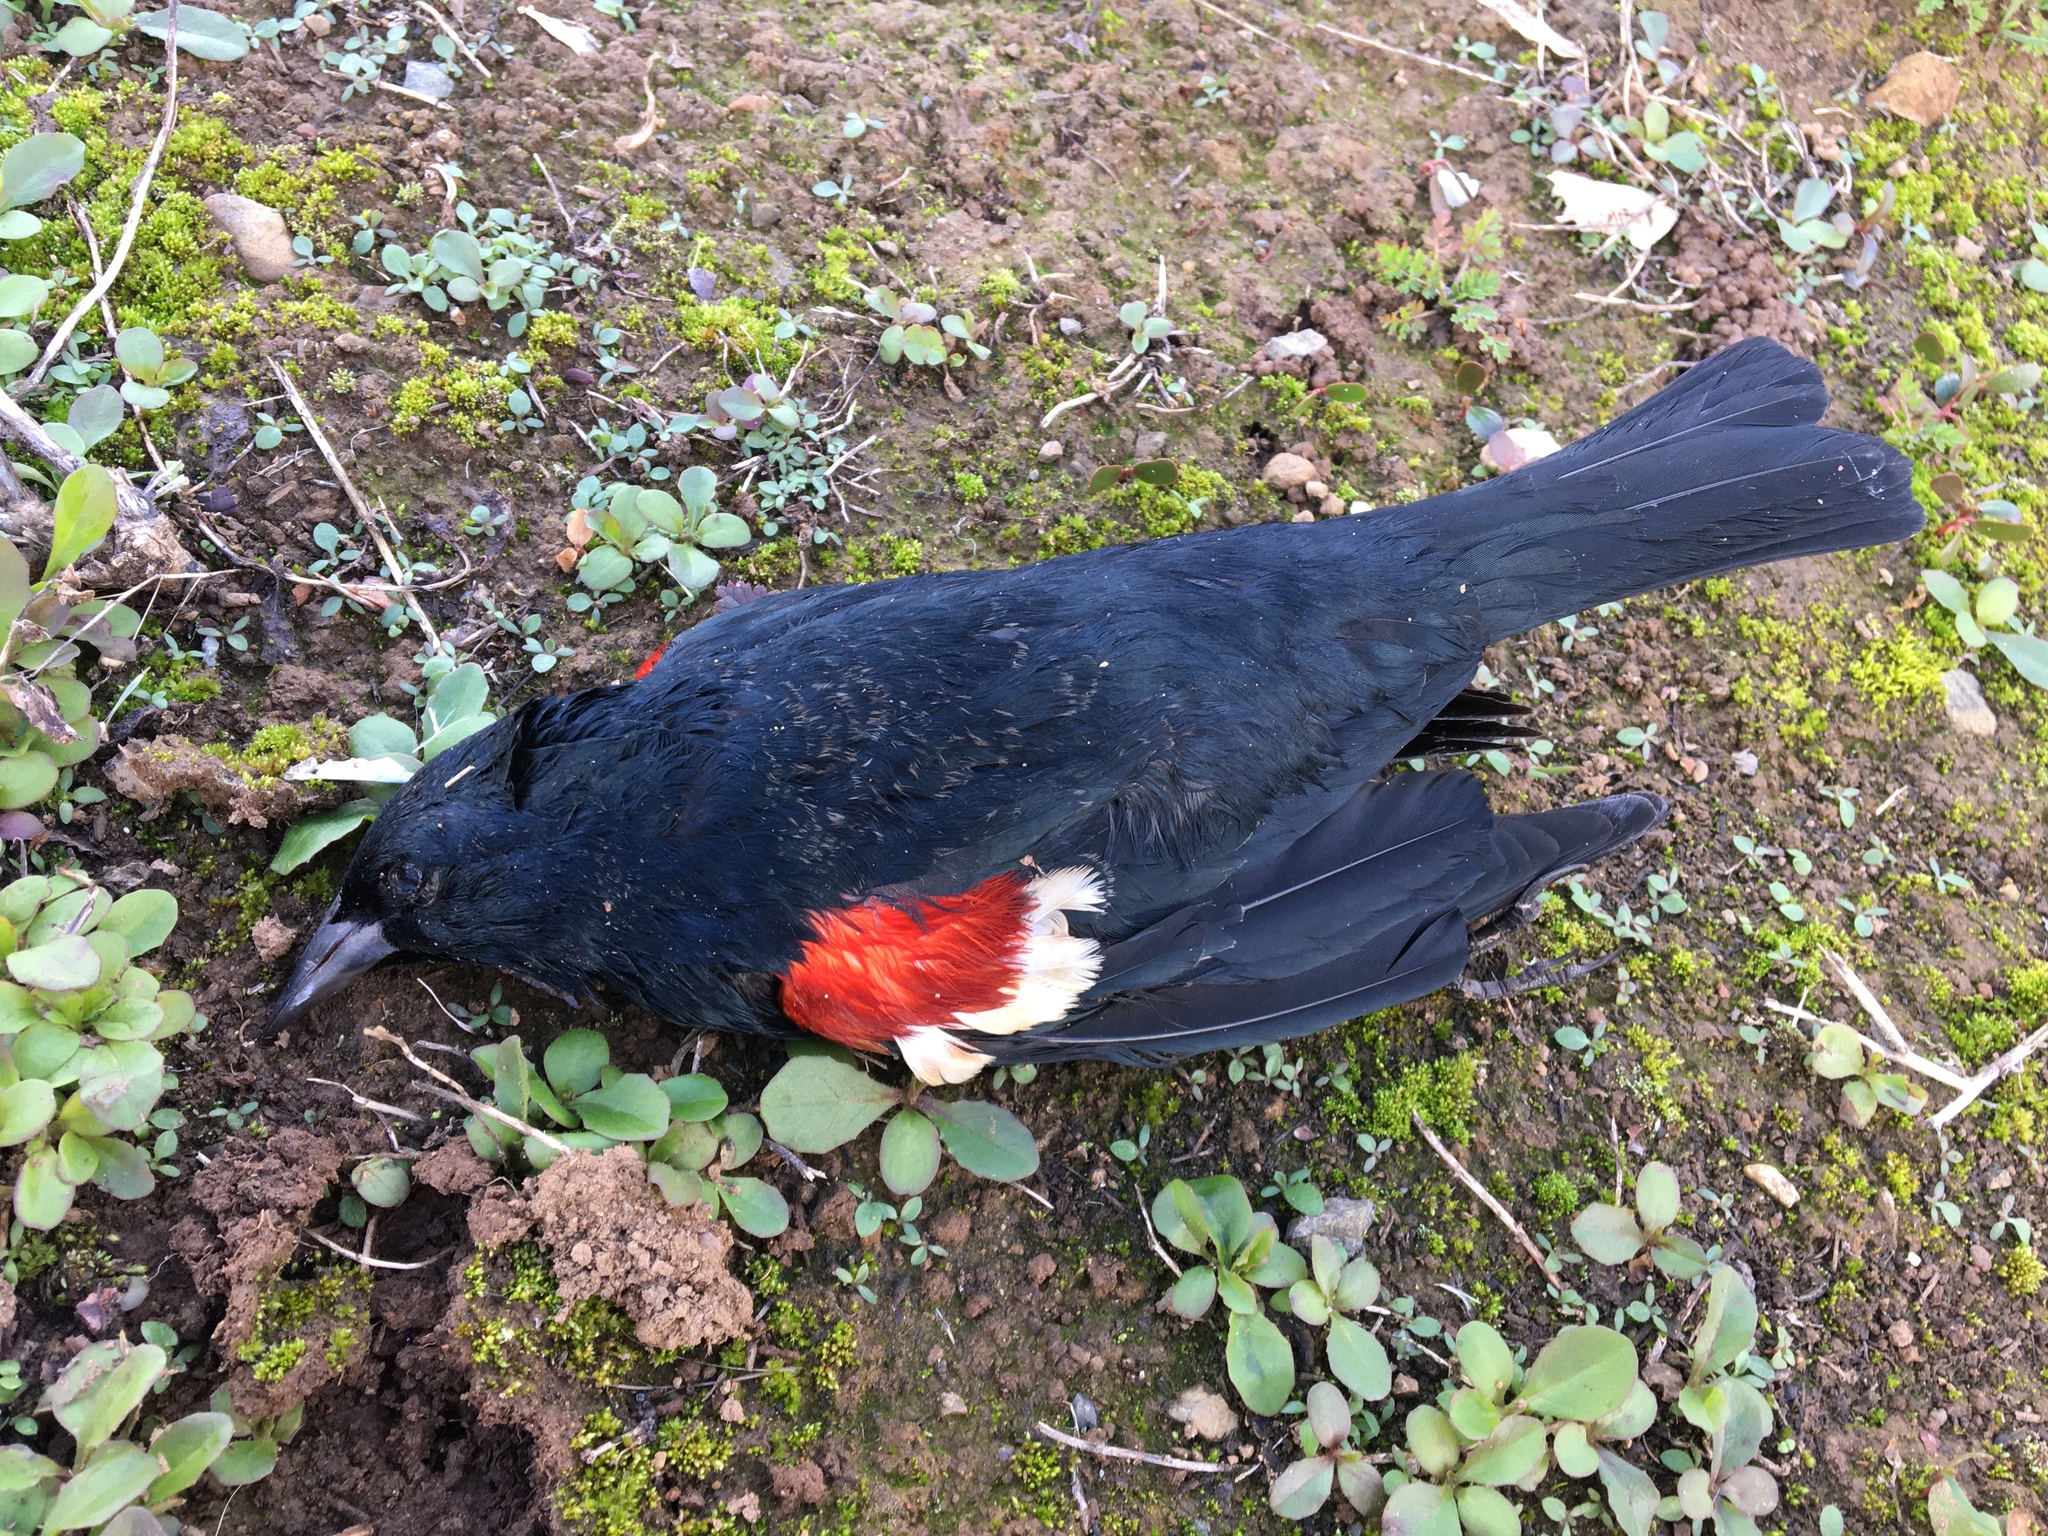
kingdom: Animalia
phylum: Chordata
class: Aves
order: Passeriformes
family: Icteridae
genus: Agelaius
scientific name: Agelaius tricolor
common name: Tricolored blackbird
